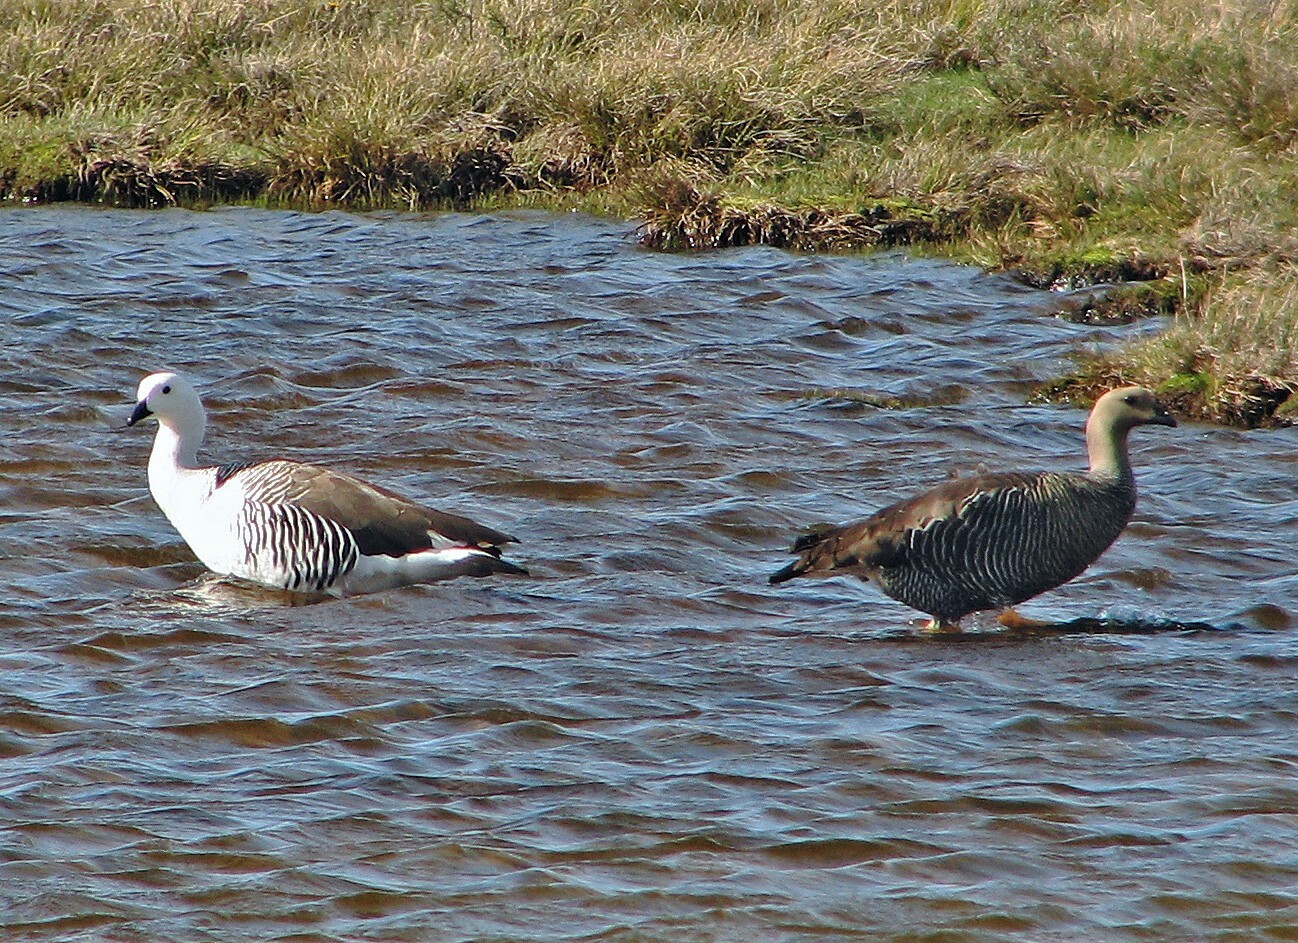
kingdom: Animalia
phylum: Chordata
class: Aves
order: Anseriformes
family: Anatidae
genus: Chloephaga
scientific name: Chloephaga picta
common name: Upland goose
